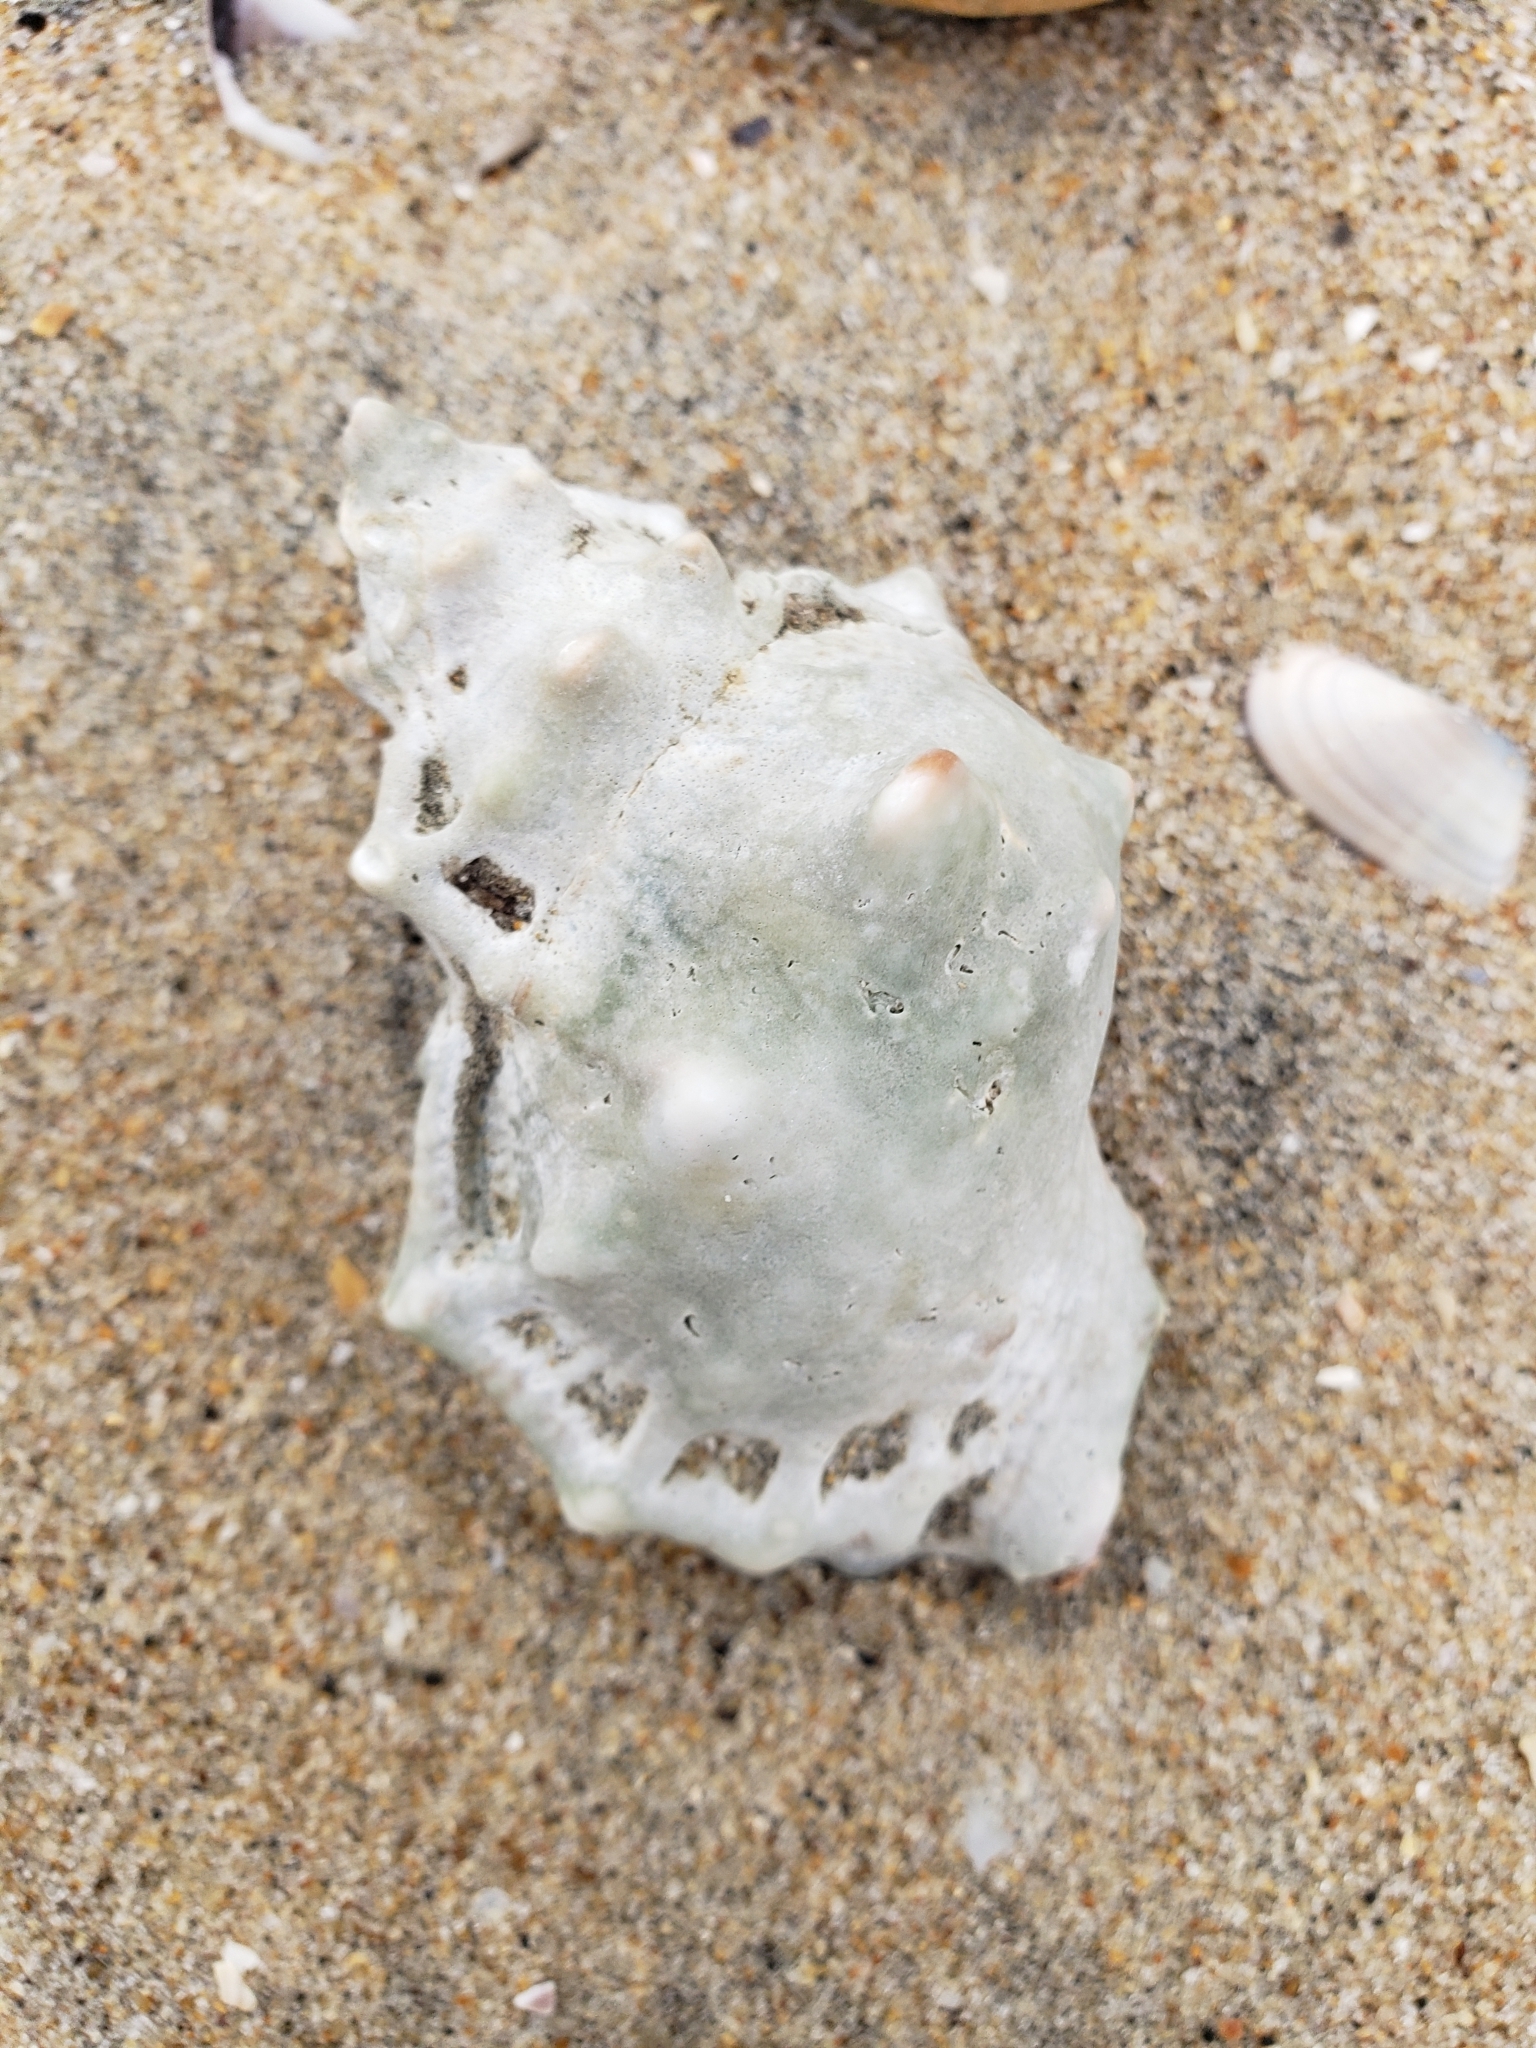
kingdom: Animalia
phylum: Mollusca
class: Gastropoda
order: Littorinimorpha
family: Bursidae
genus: Crossata
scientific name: Crossata californica
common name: California frogsnail
